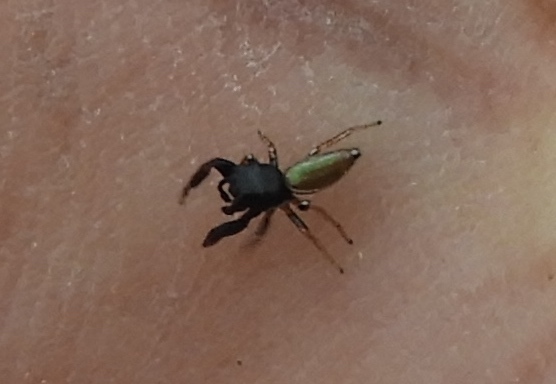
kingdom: Animalia
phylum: Arthropoda
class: Arachnida
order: Araneae
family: Salticidae
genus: Sassacus
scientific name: Sassacus vitis
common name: Jumping spiders
